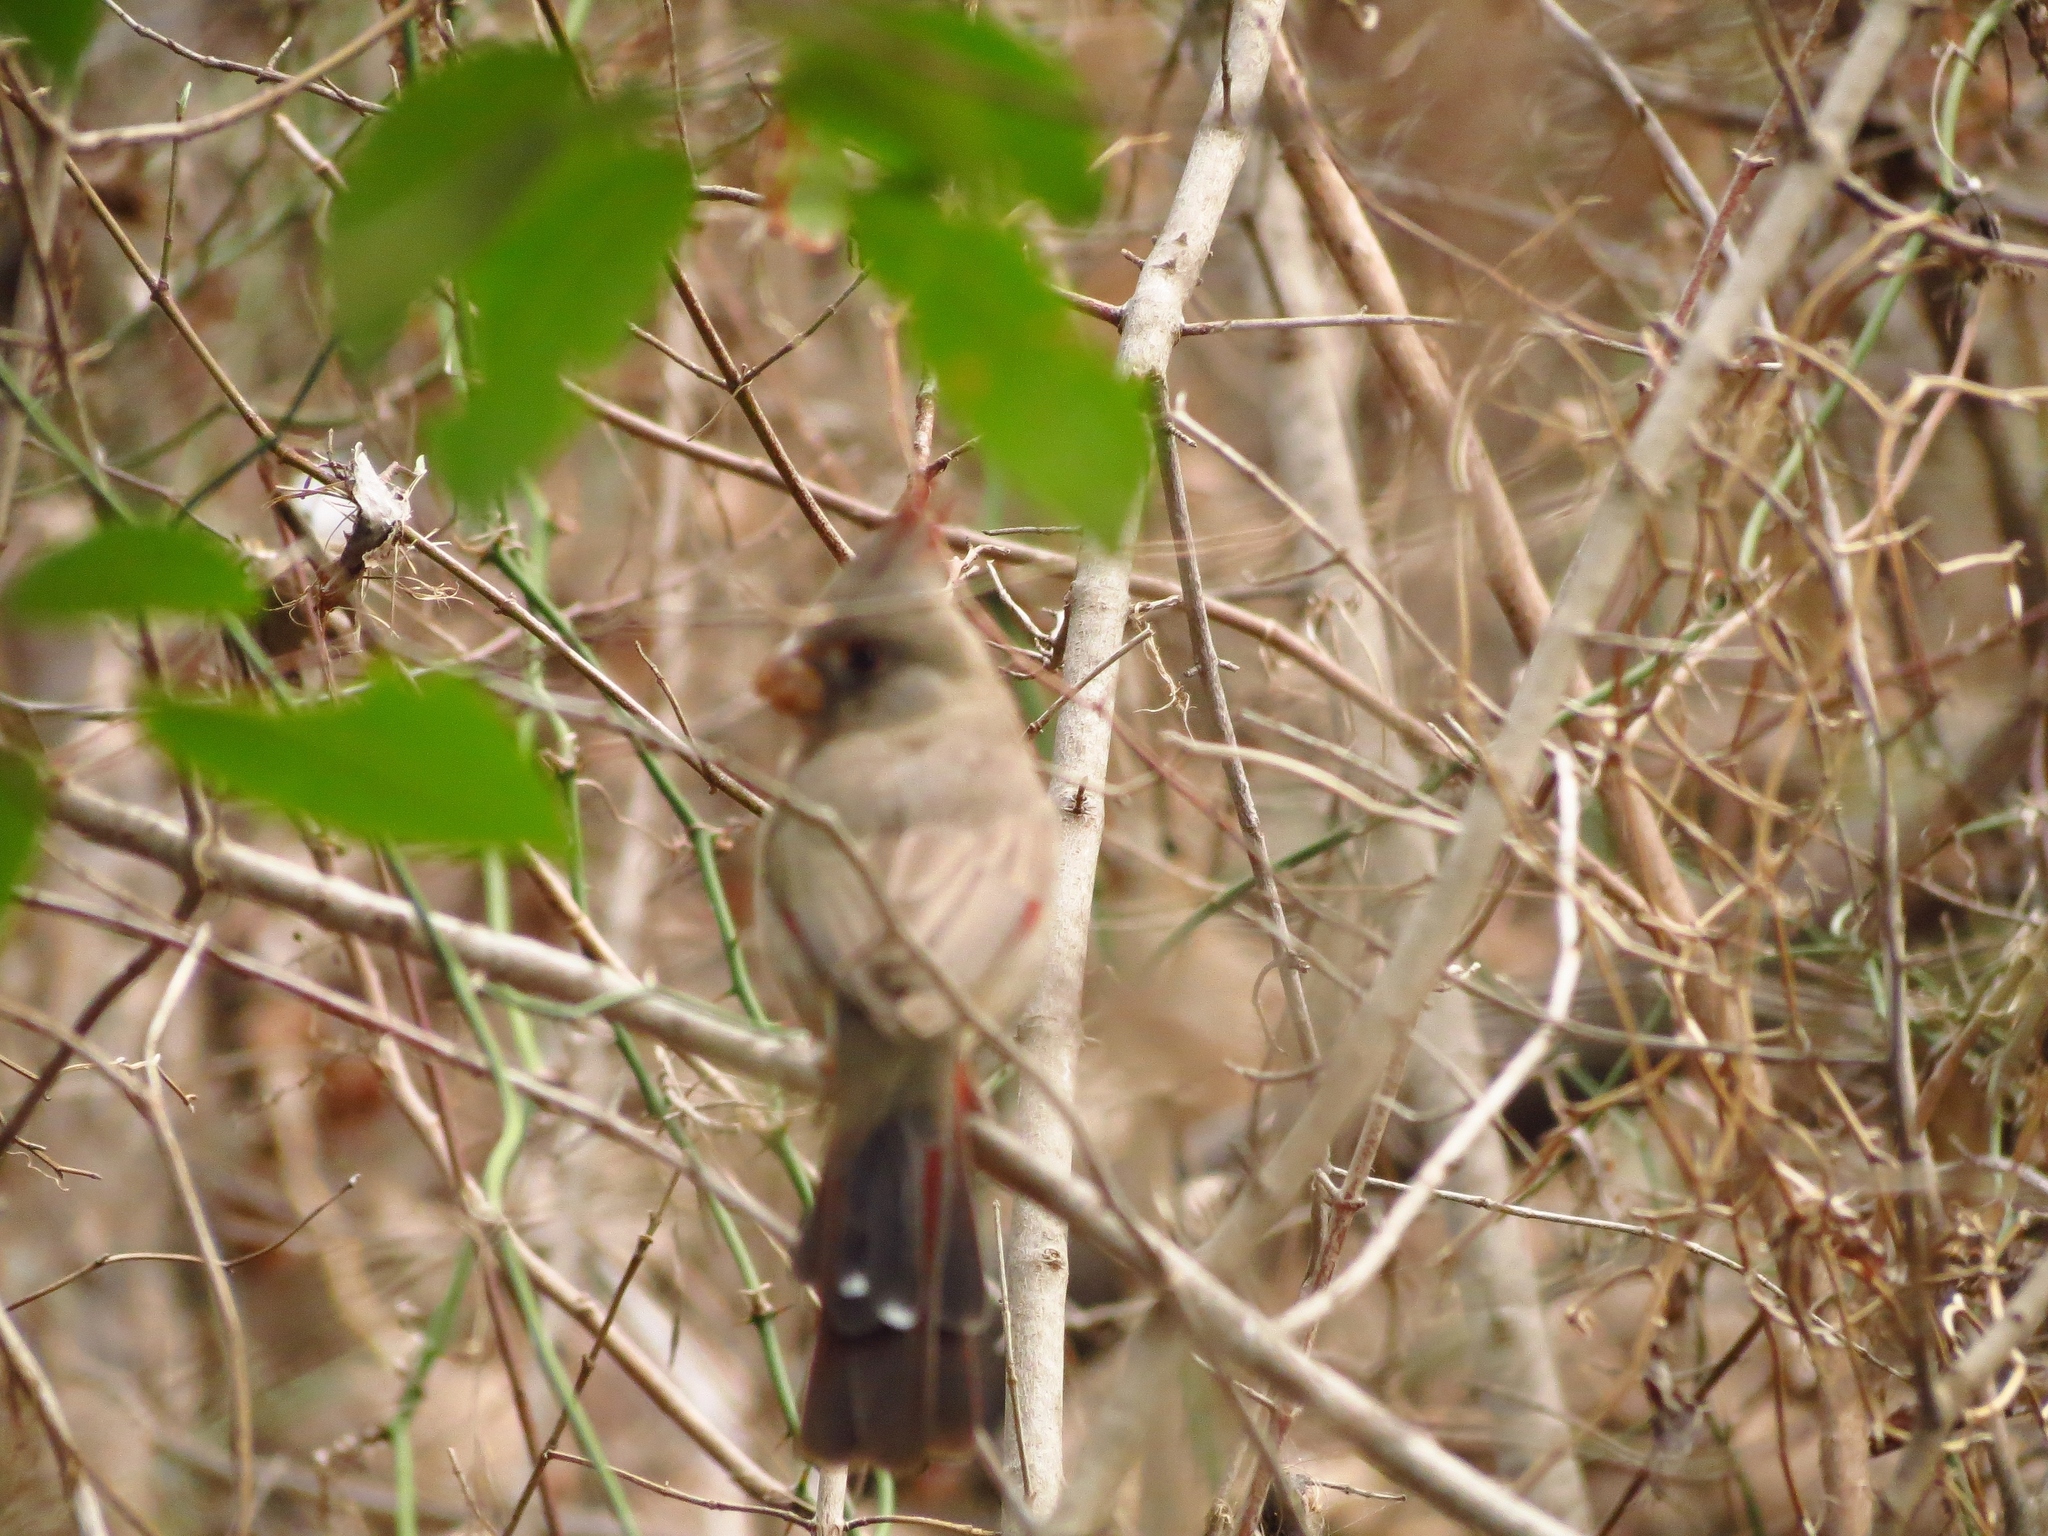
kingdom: Animalia
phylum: Chordata
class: Aves
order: Passeriformes
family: Cardinalidae
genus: Cardinalis
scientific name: Cardinalis sinuatus
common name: Pyrrhuloxia
